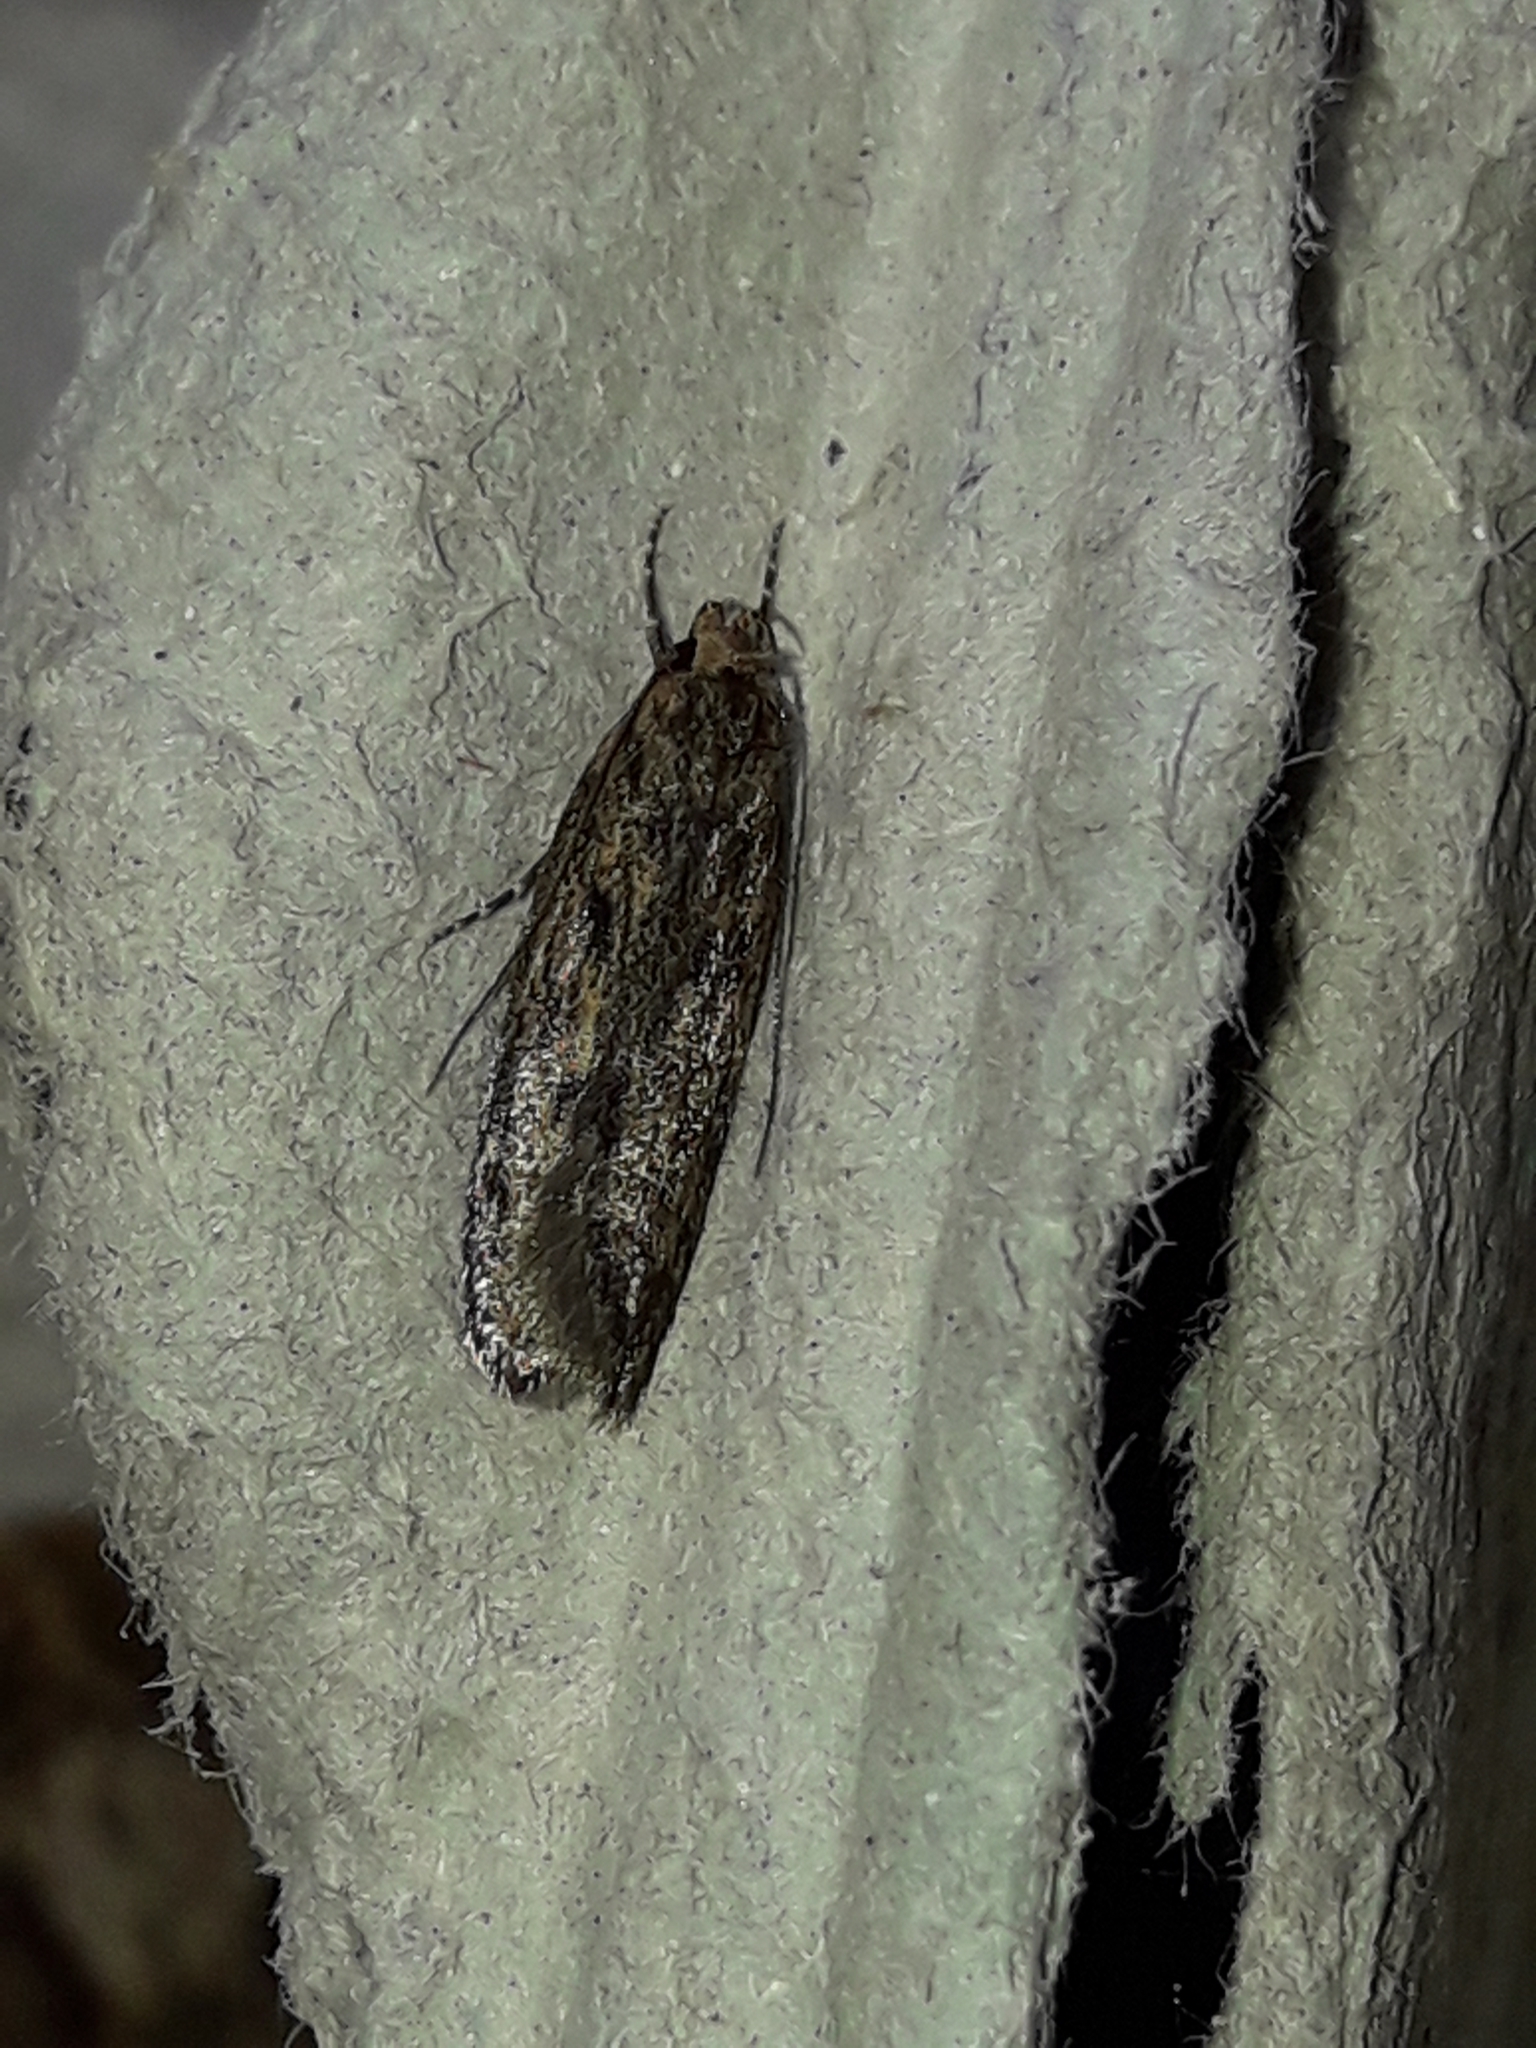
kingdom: Animalia
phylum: Arthropoda
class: Insecta
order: Lepidoptera
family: Oecophoridae
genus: Hofmannophila
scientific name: Hofmannophila pseudospretella
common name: Brown house moth
